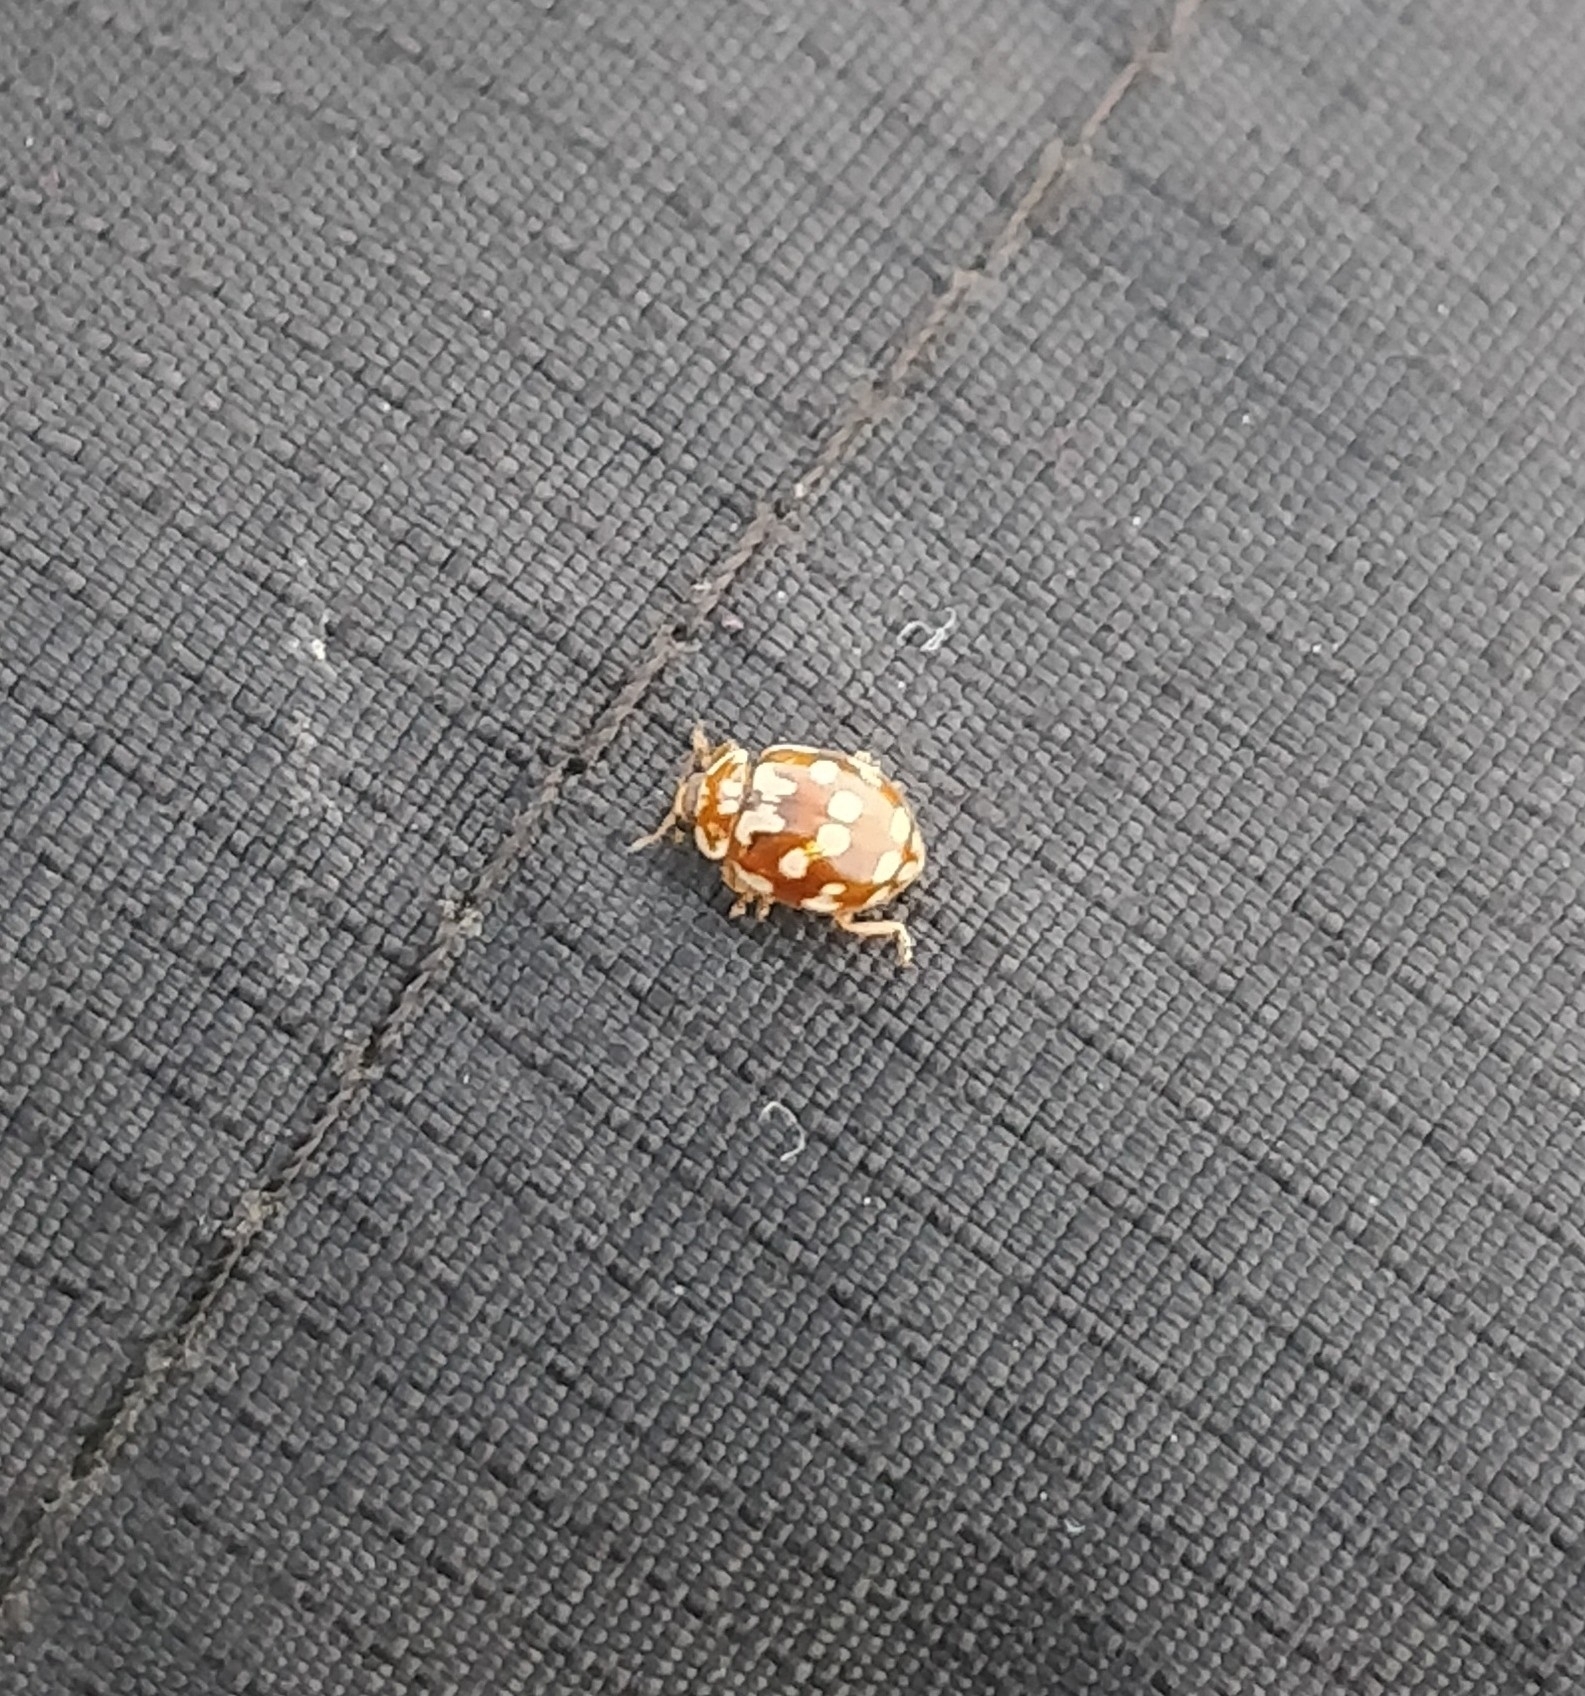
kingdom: Animalia
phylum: Arthropoda
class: Insecta
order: Coleoptera
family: Coccinellidae
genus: Myrrha
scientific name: Myrrha octodecimguttata
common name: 18-spot ladybird
